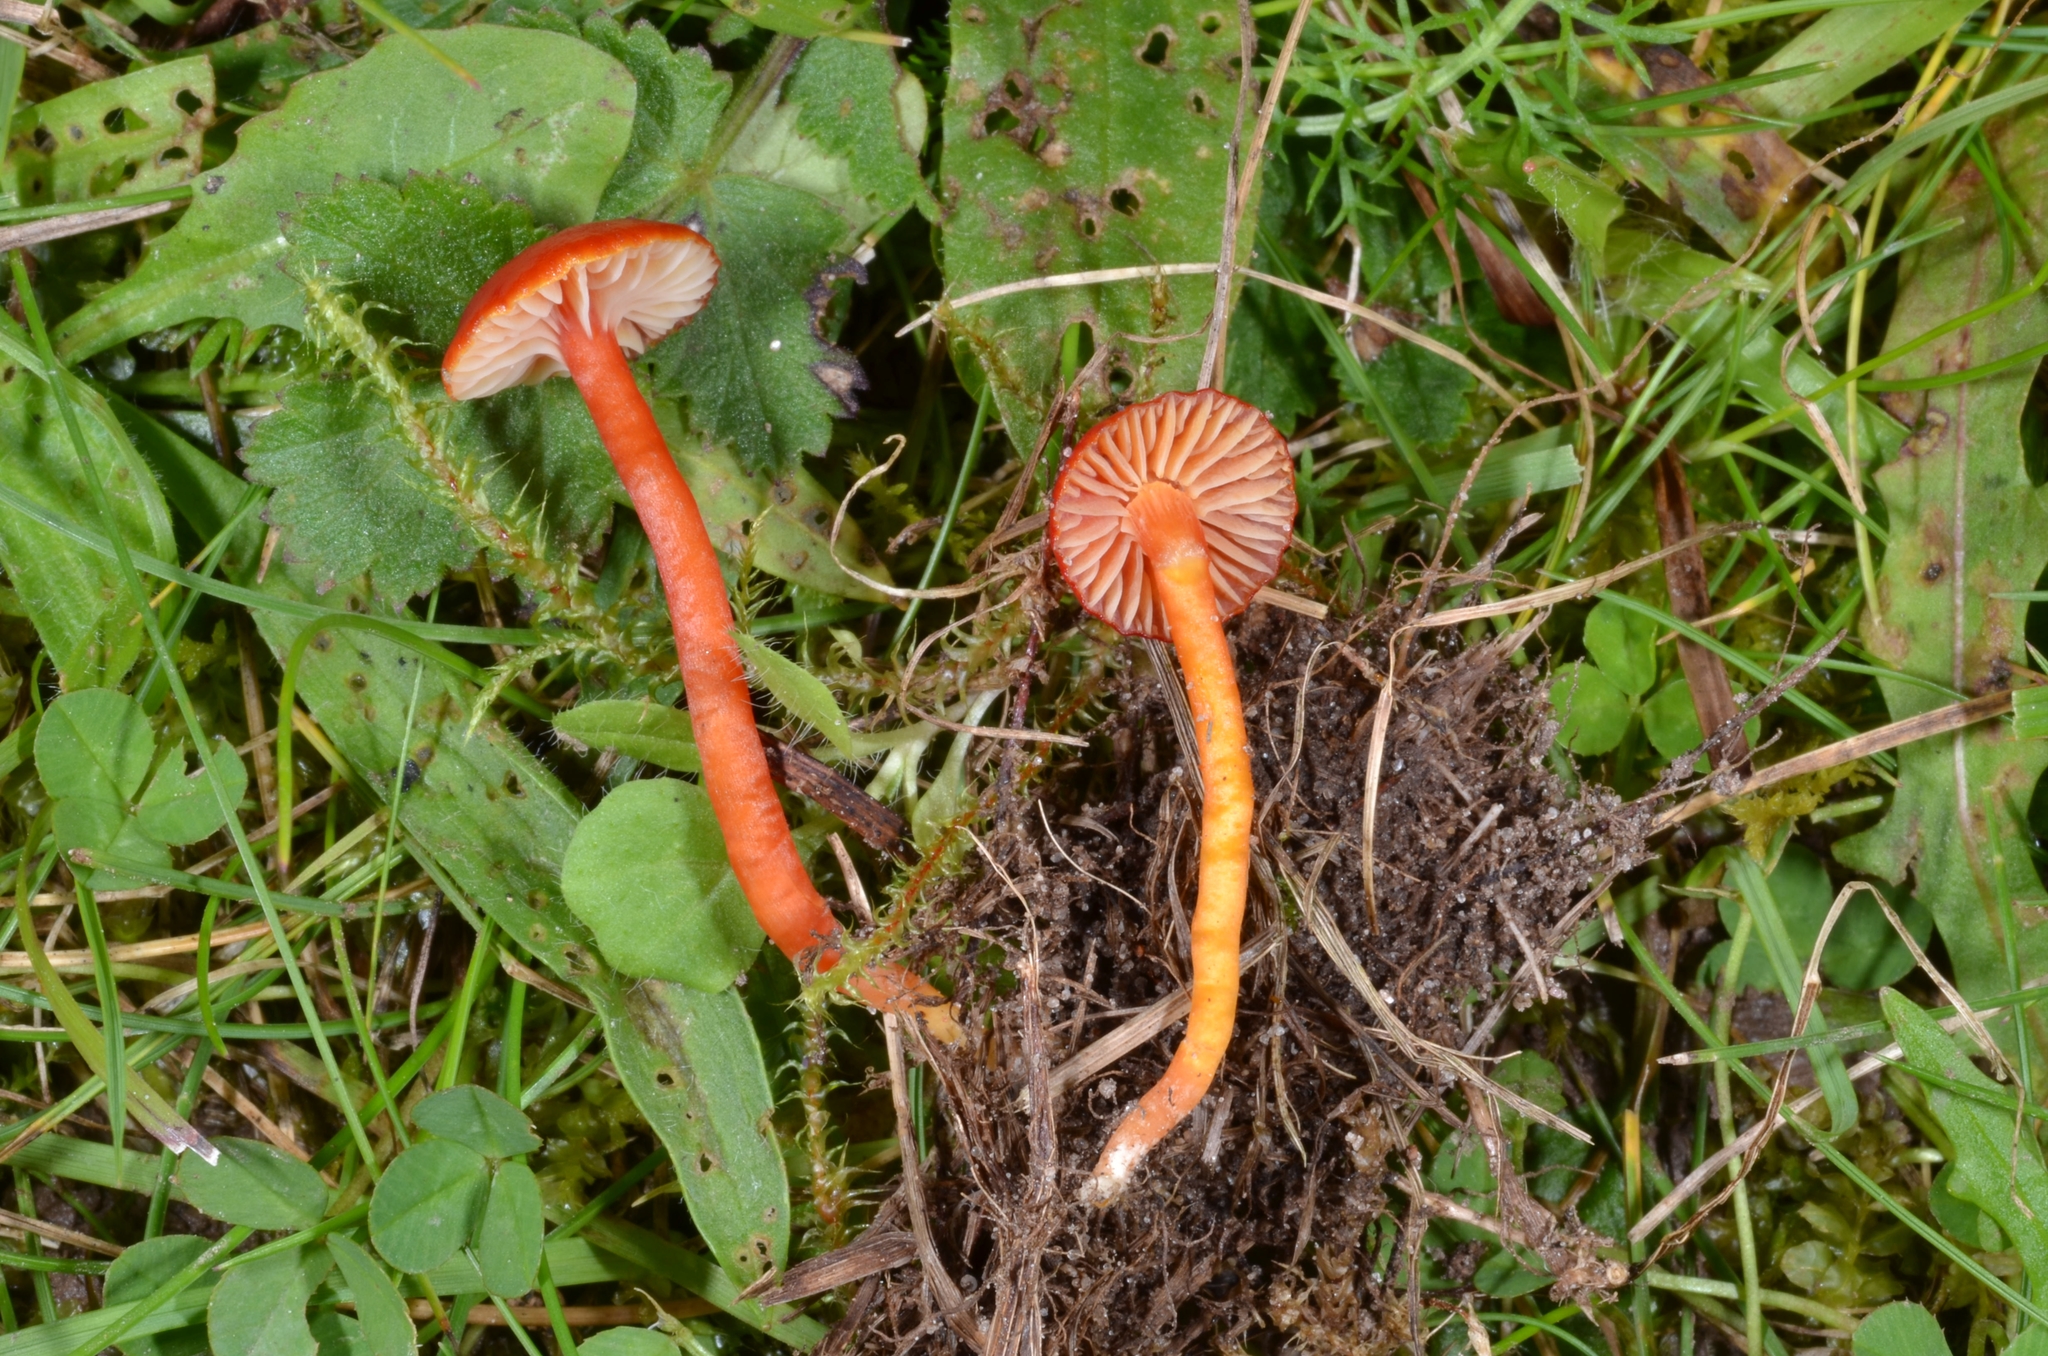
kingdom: Fungi
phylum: Basidiomycota
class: Agaricomycetes
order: Agaricales
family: Hygrophoraceae
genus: Hygrocybe
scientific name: Hygrocybe insipida
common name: Spangle waxcap
